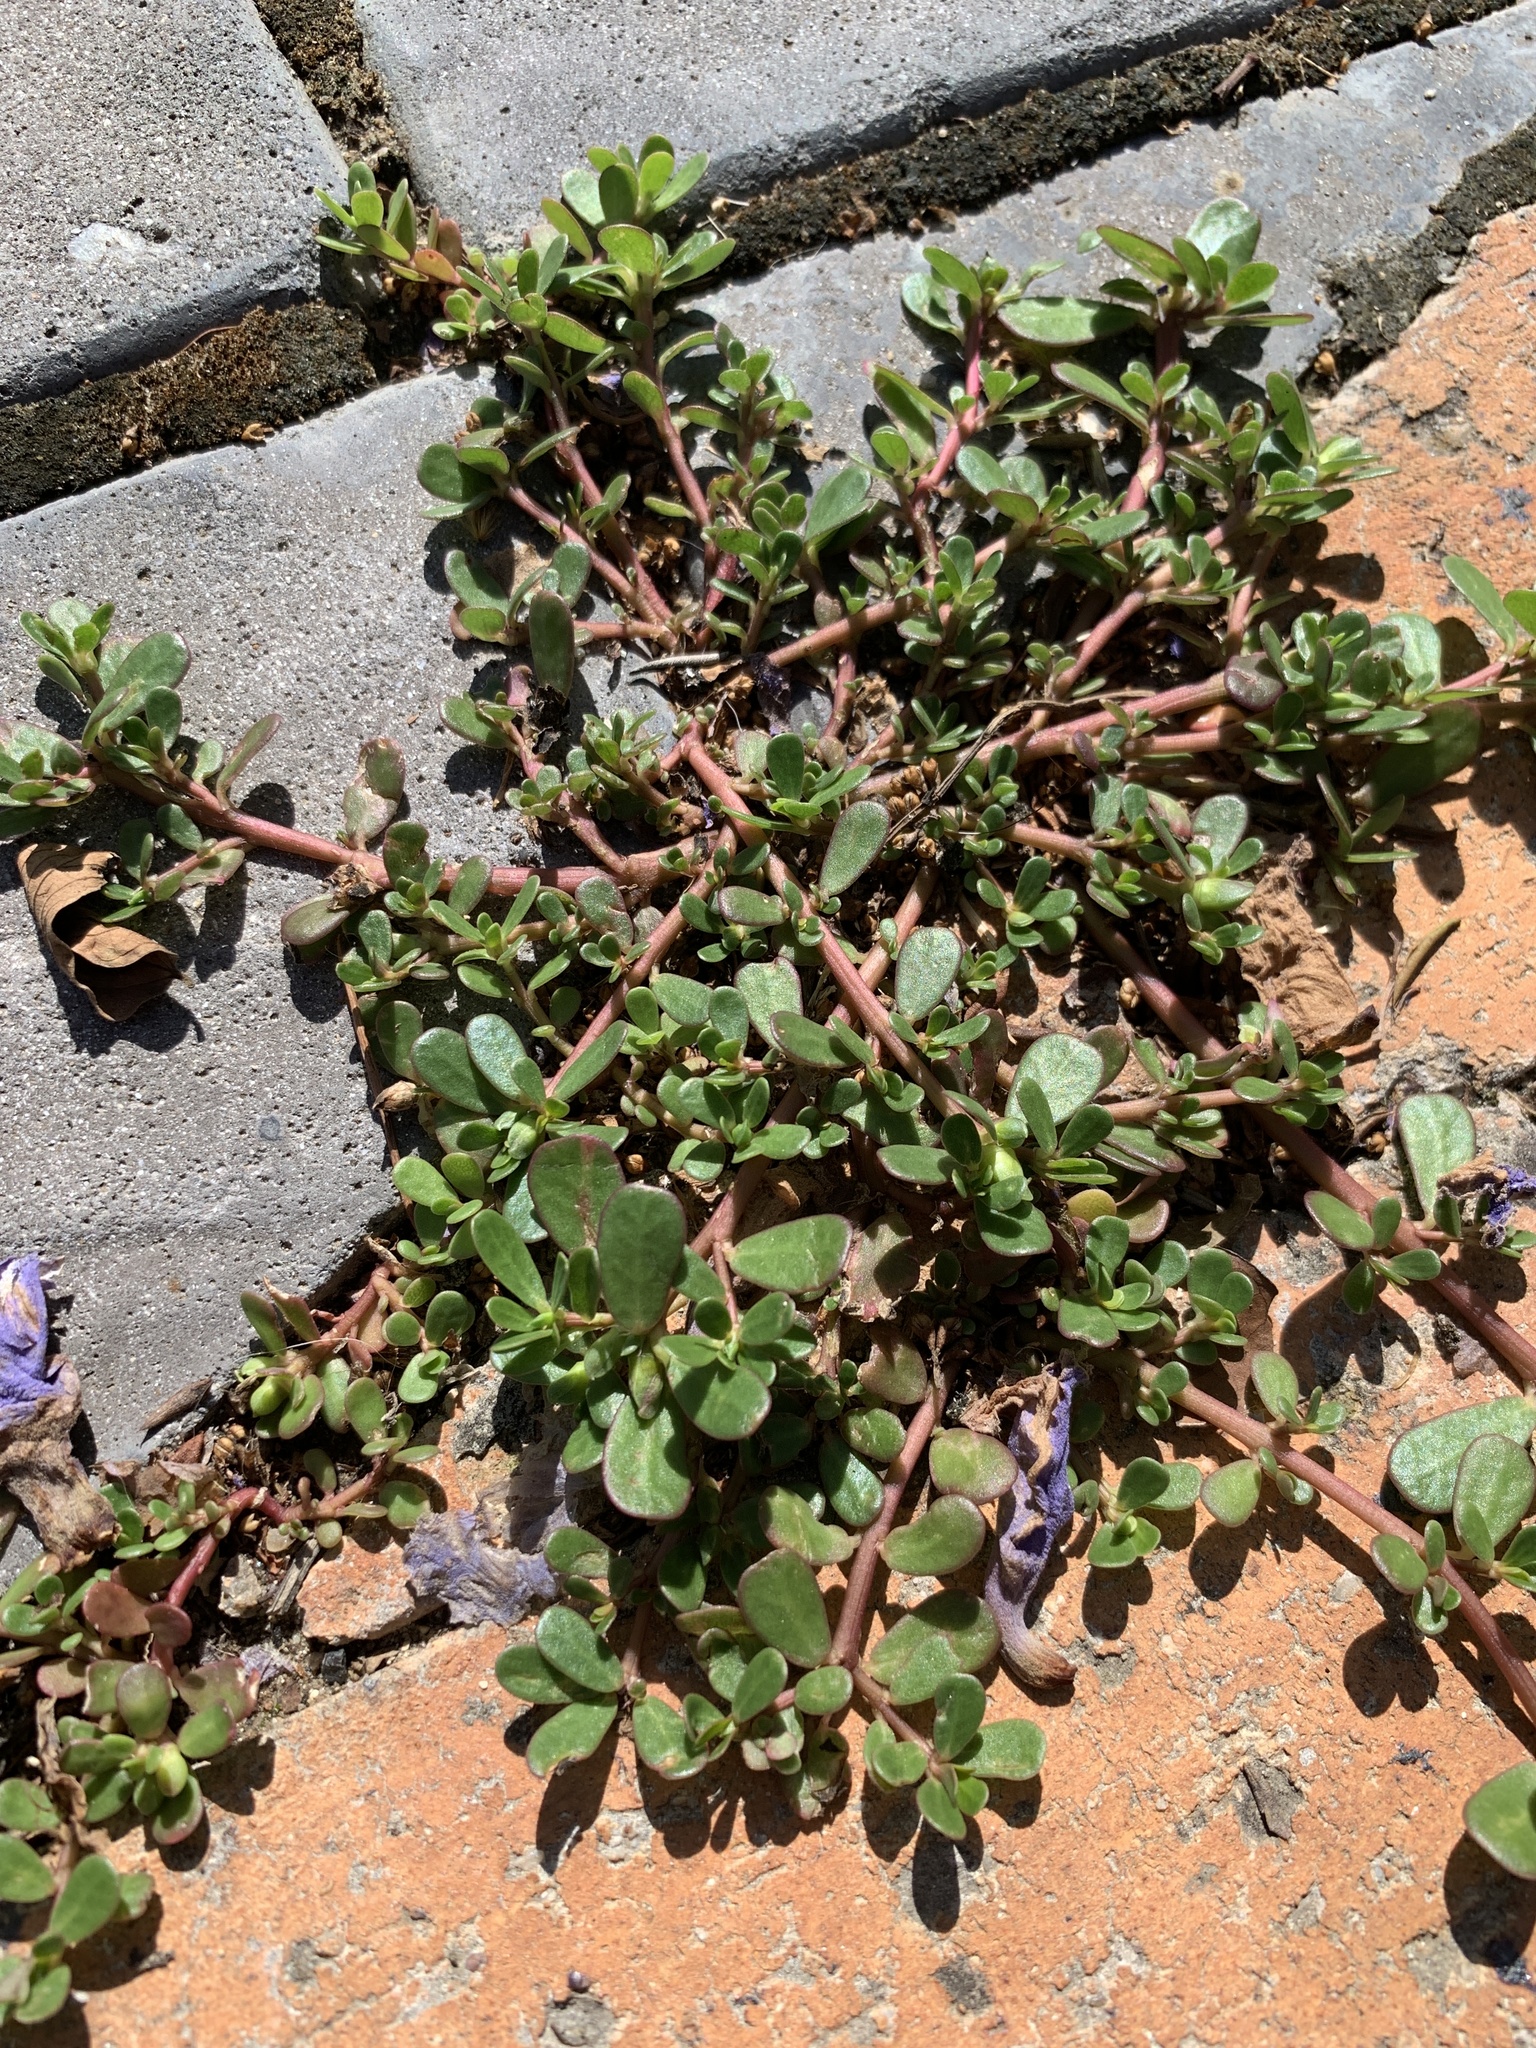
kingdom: Plantae
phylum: Tracheophyta
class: Magnoliopsida
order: Caryophyllales
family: Portulacaceae
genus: Portulaca
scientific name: Portulaca oleracea
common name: Common purslane
